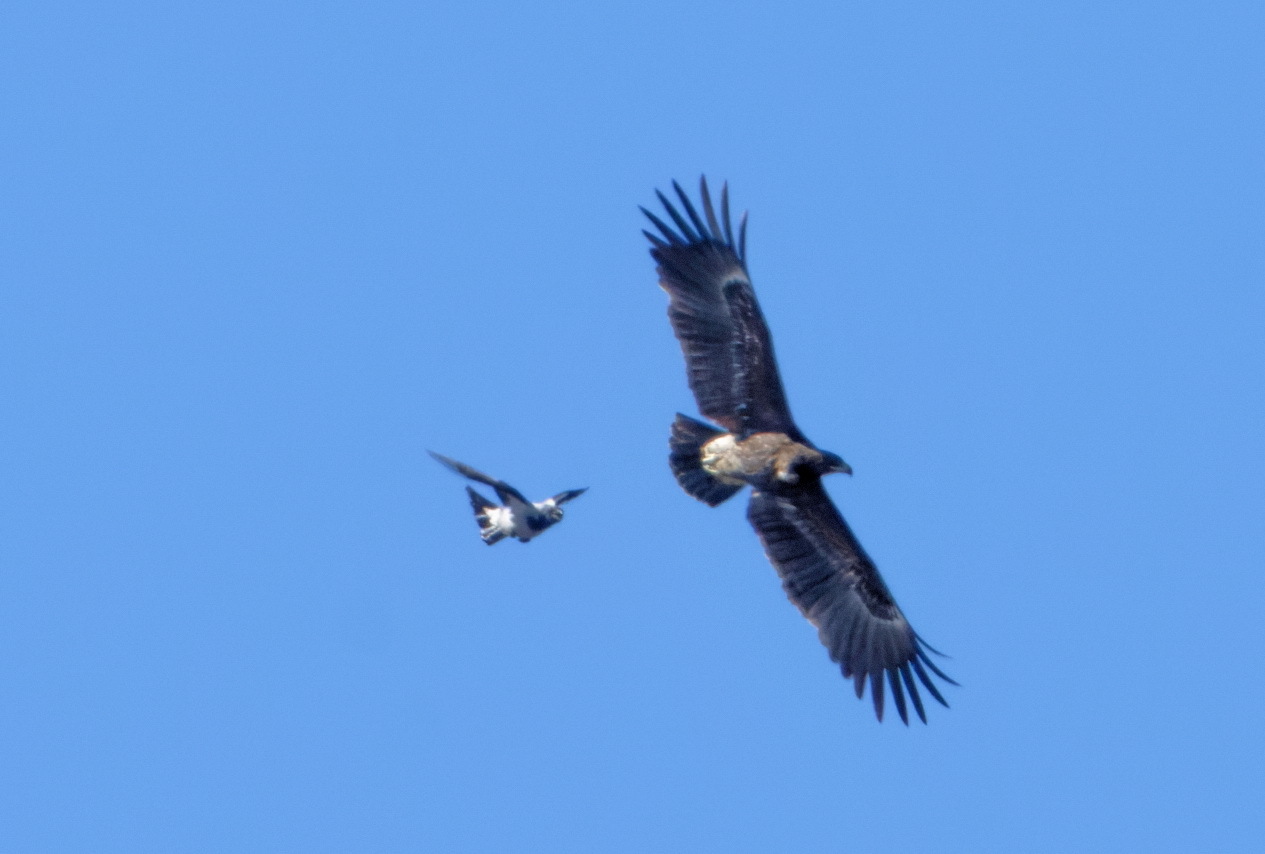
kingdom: Animalia
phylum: Chordata
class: Aves
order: Accipitriformes
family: Accipitridae
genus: Aquila
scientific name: Aquila clanga
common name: Greater spotted eagle
